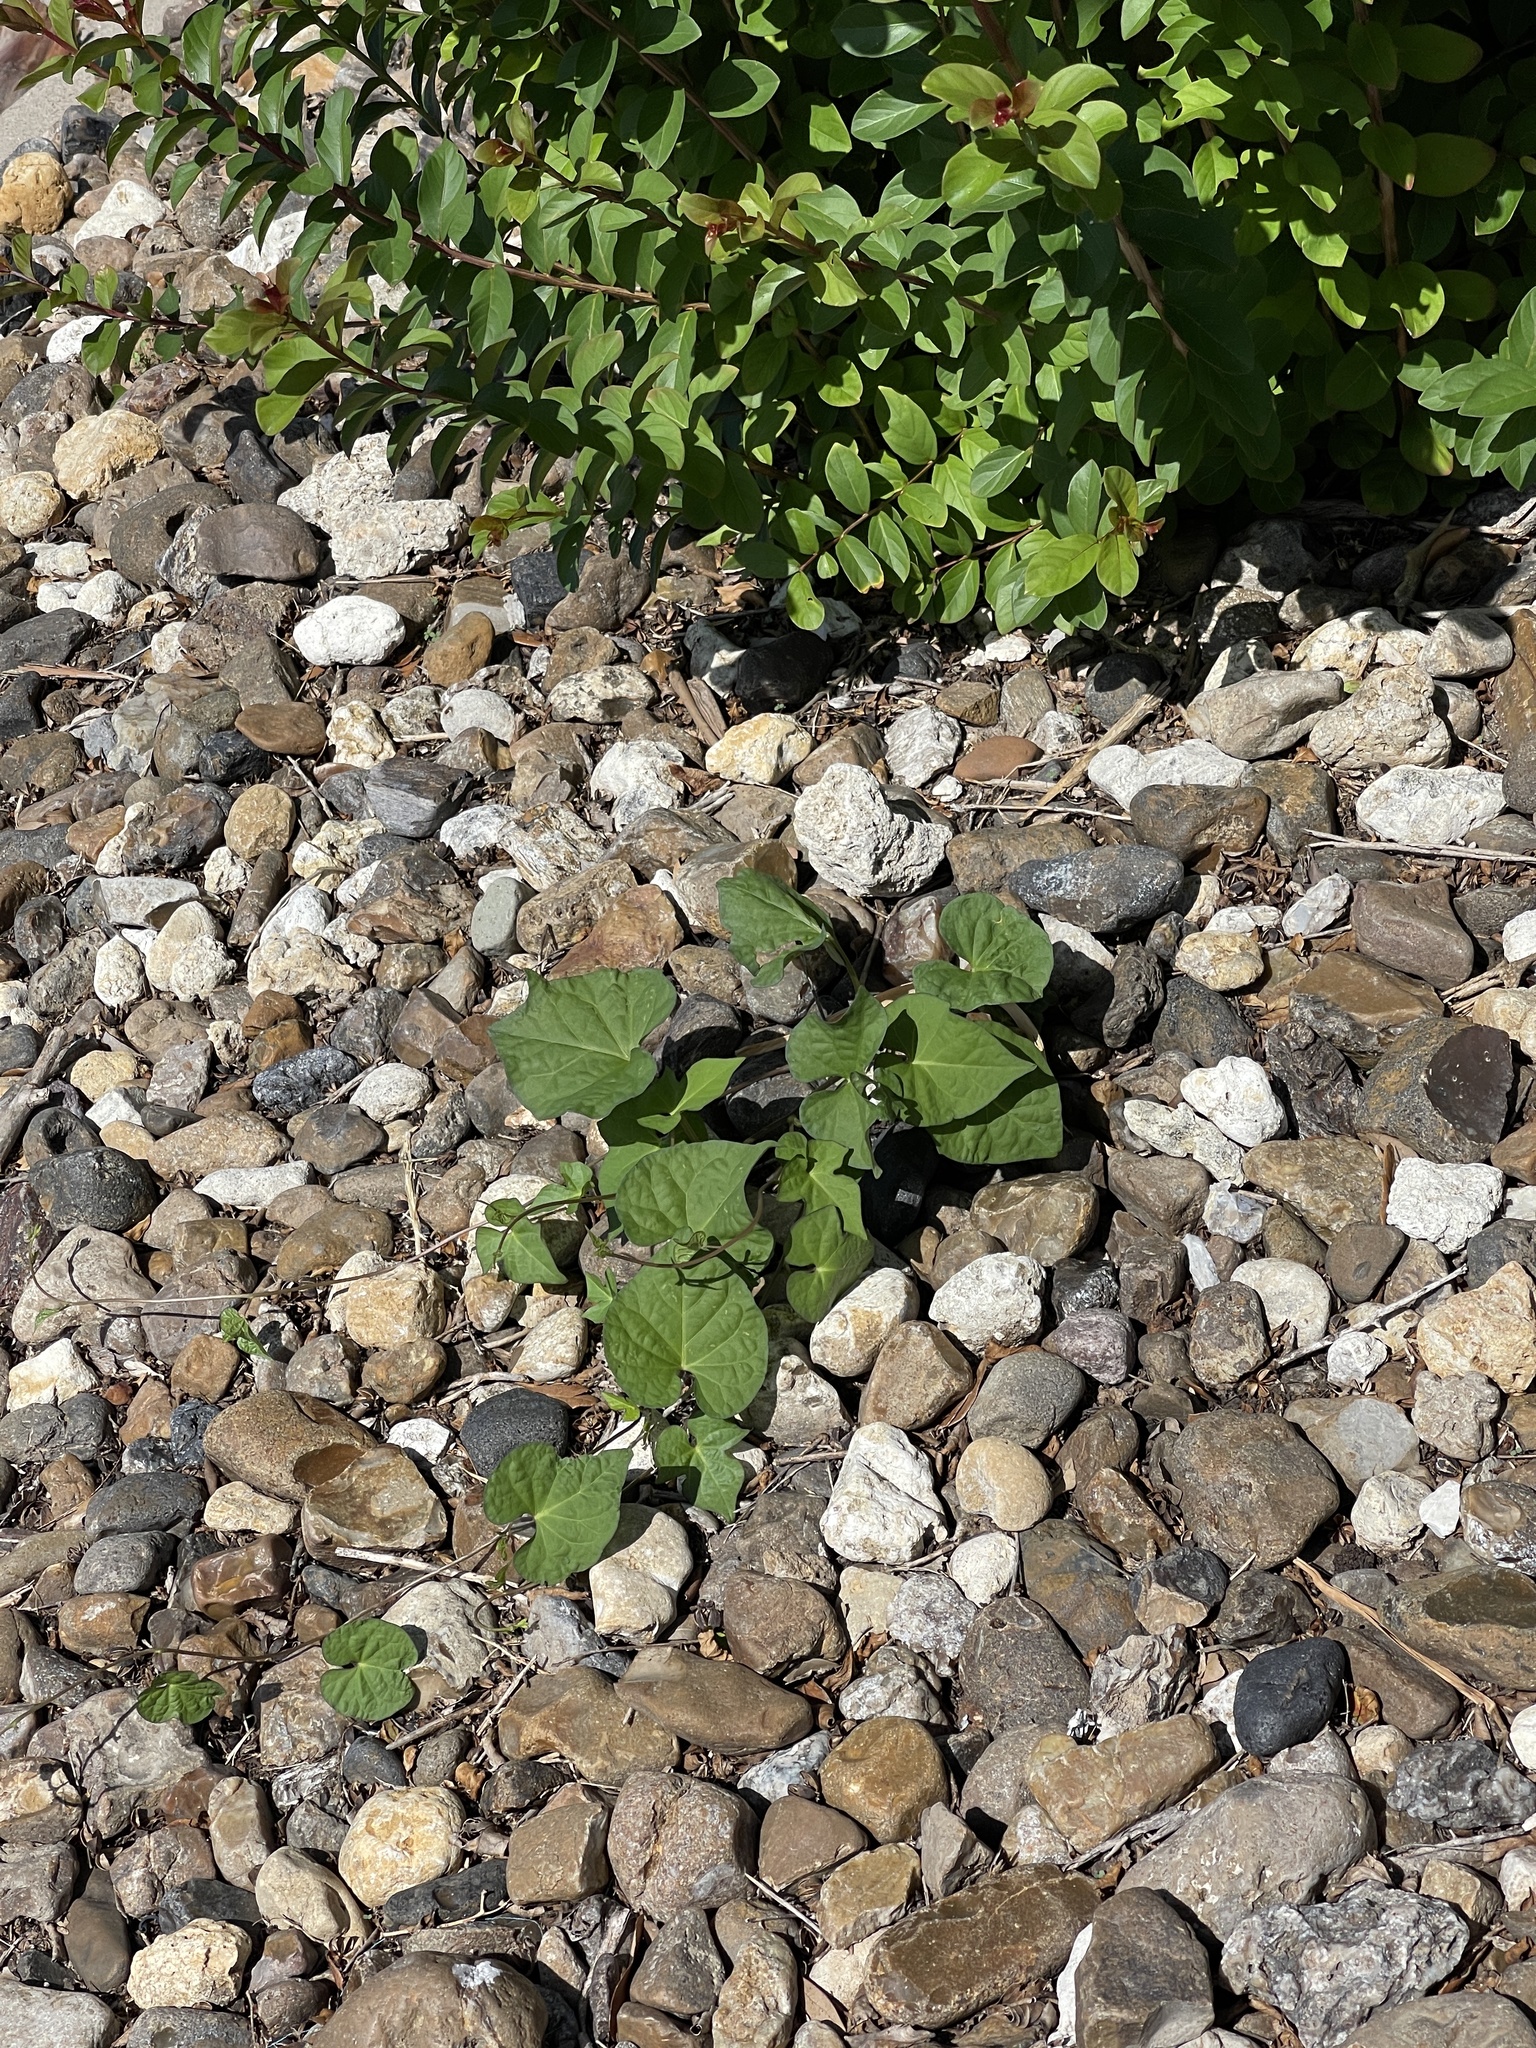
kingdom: Plantae
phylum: Tracheophyta
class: Magnoliopsida
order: Solanales
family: Convolvulaceae
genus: Ipomoea
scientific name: Ipomoea cordatotriloba
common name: Cotton morning glory
